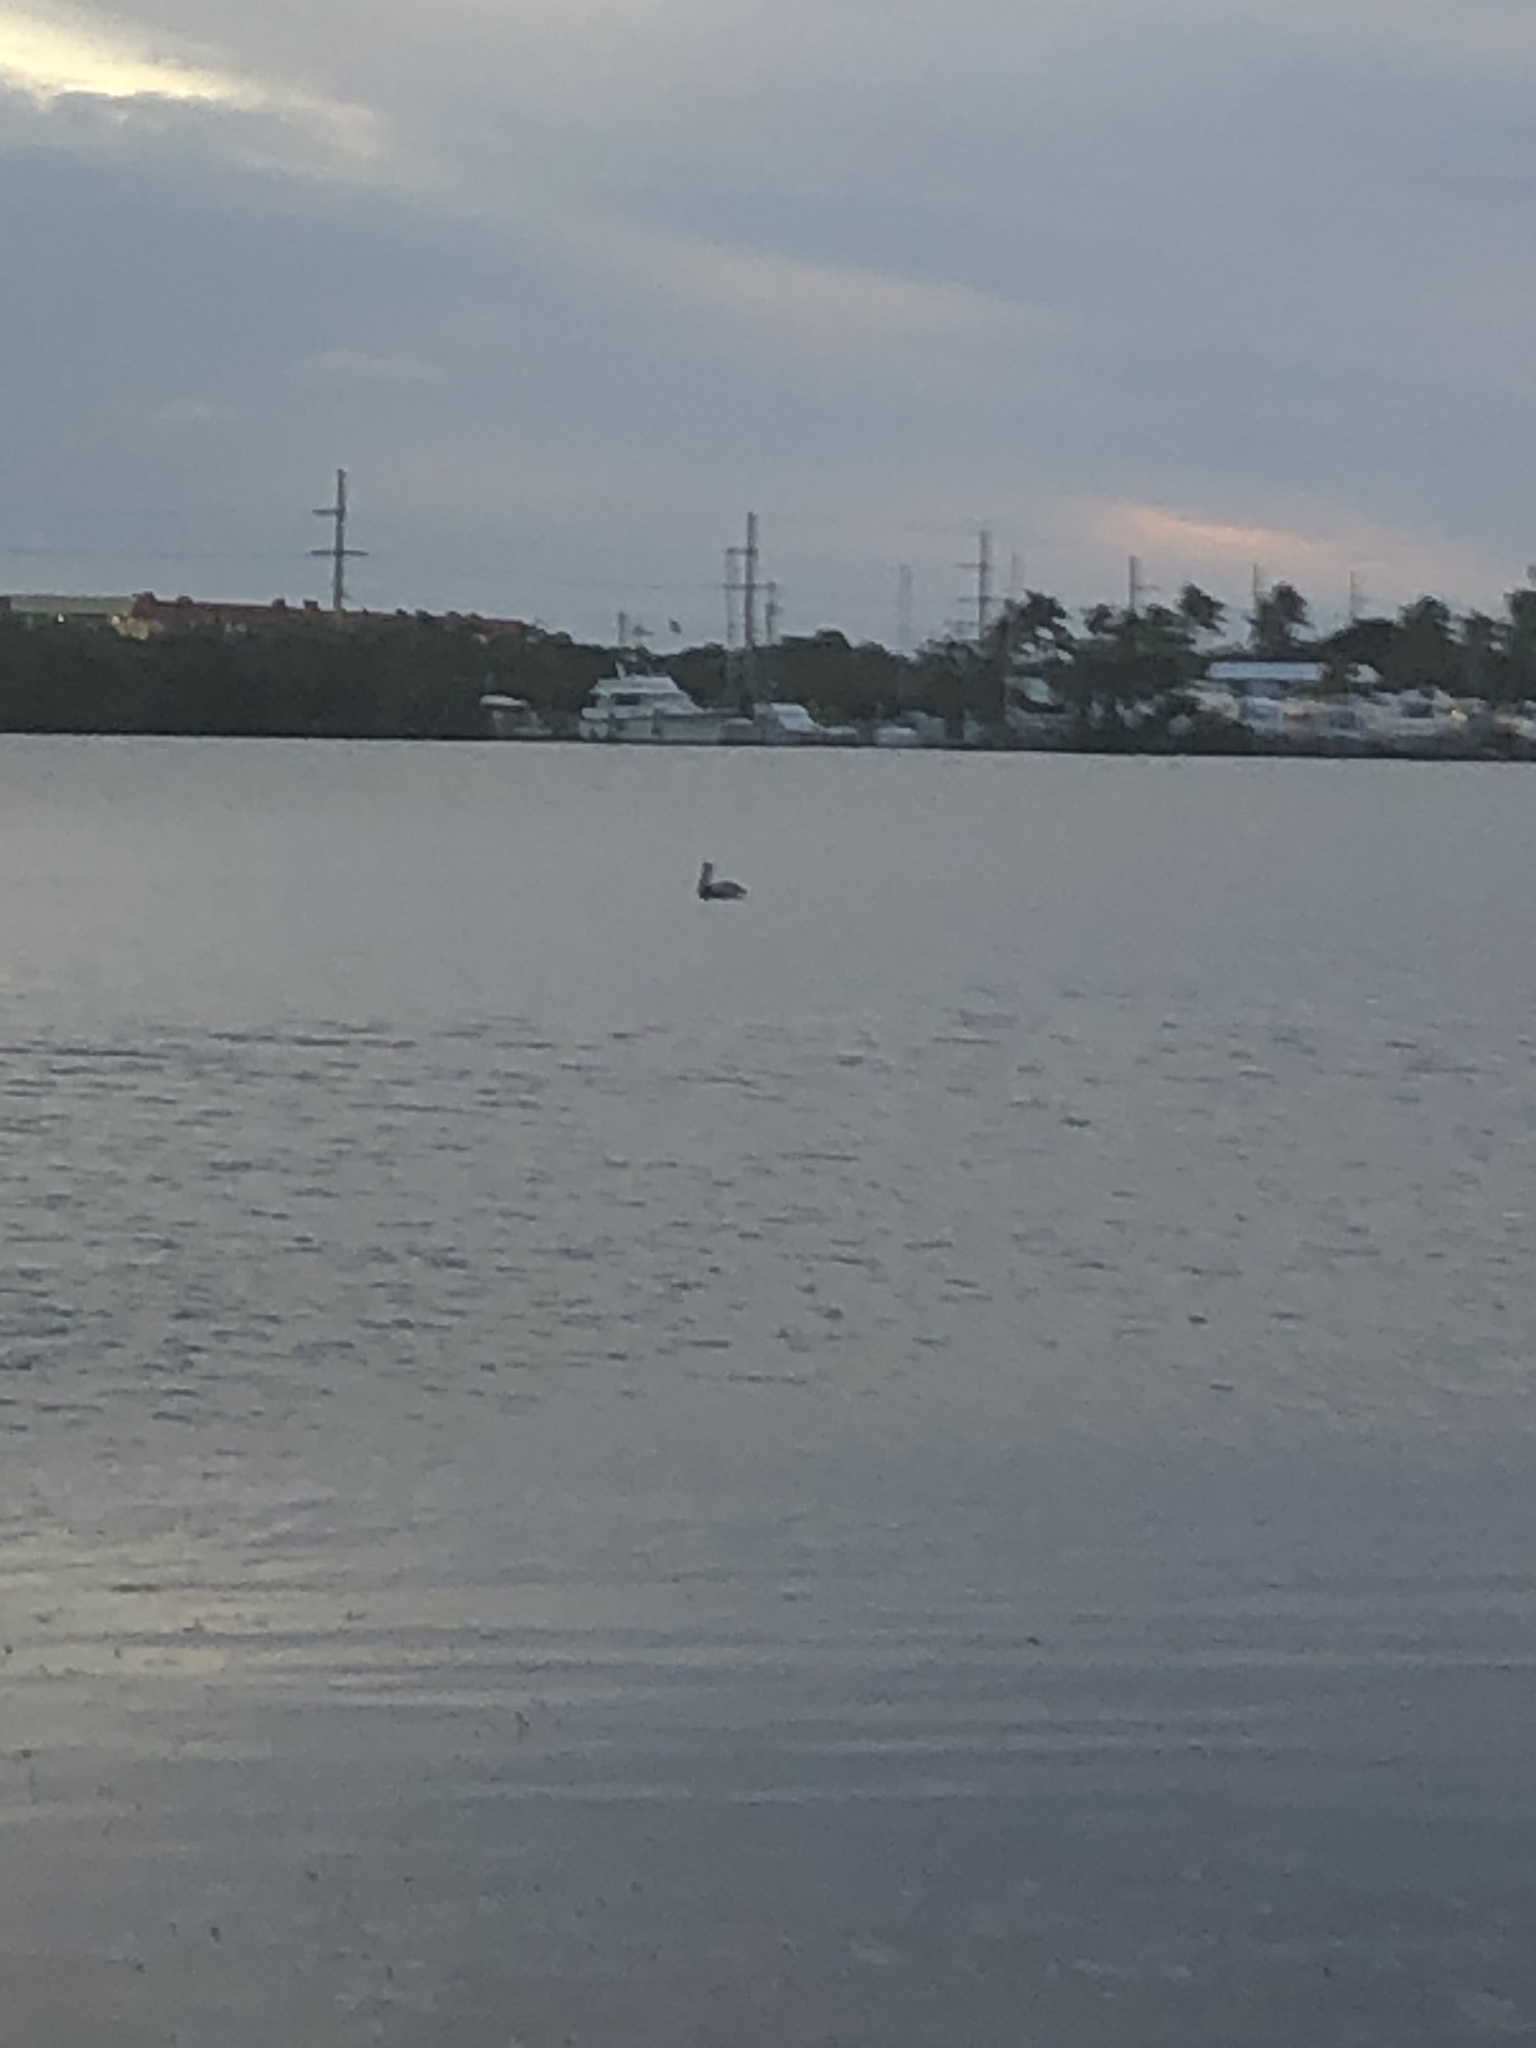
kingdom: Animalia
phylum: Chordata
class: Aves
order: Pelecaniformes
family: Pelecanidae
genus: Pelecanus
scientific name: Pelecanus occidentalis
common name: Brown pelican
